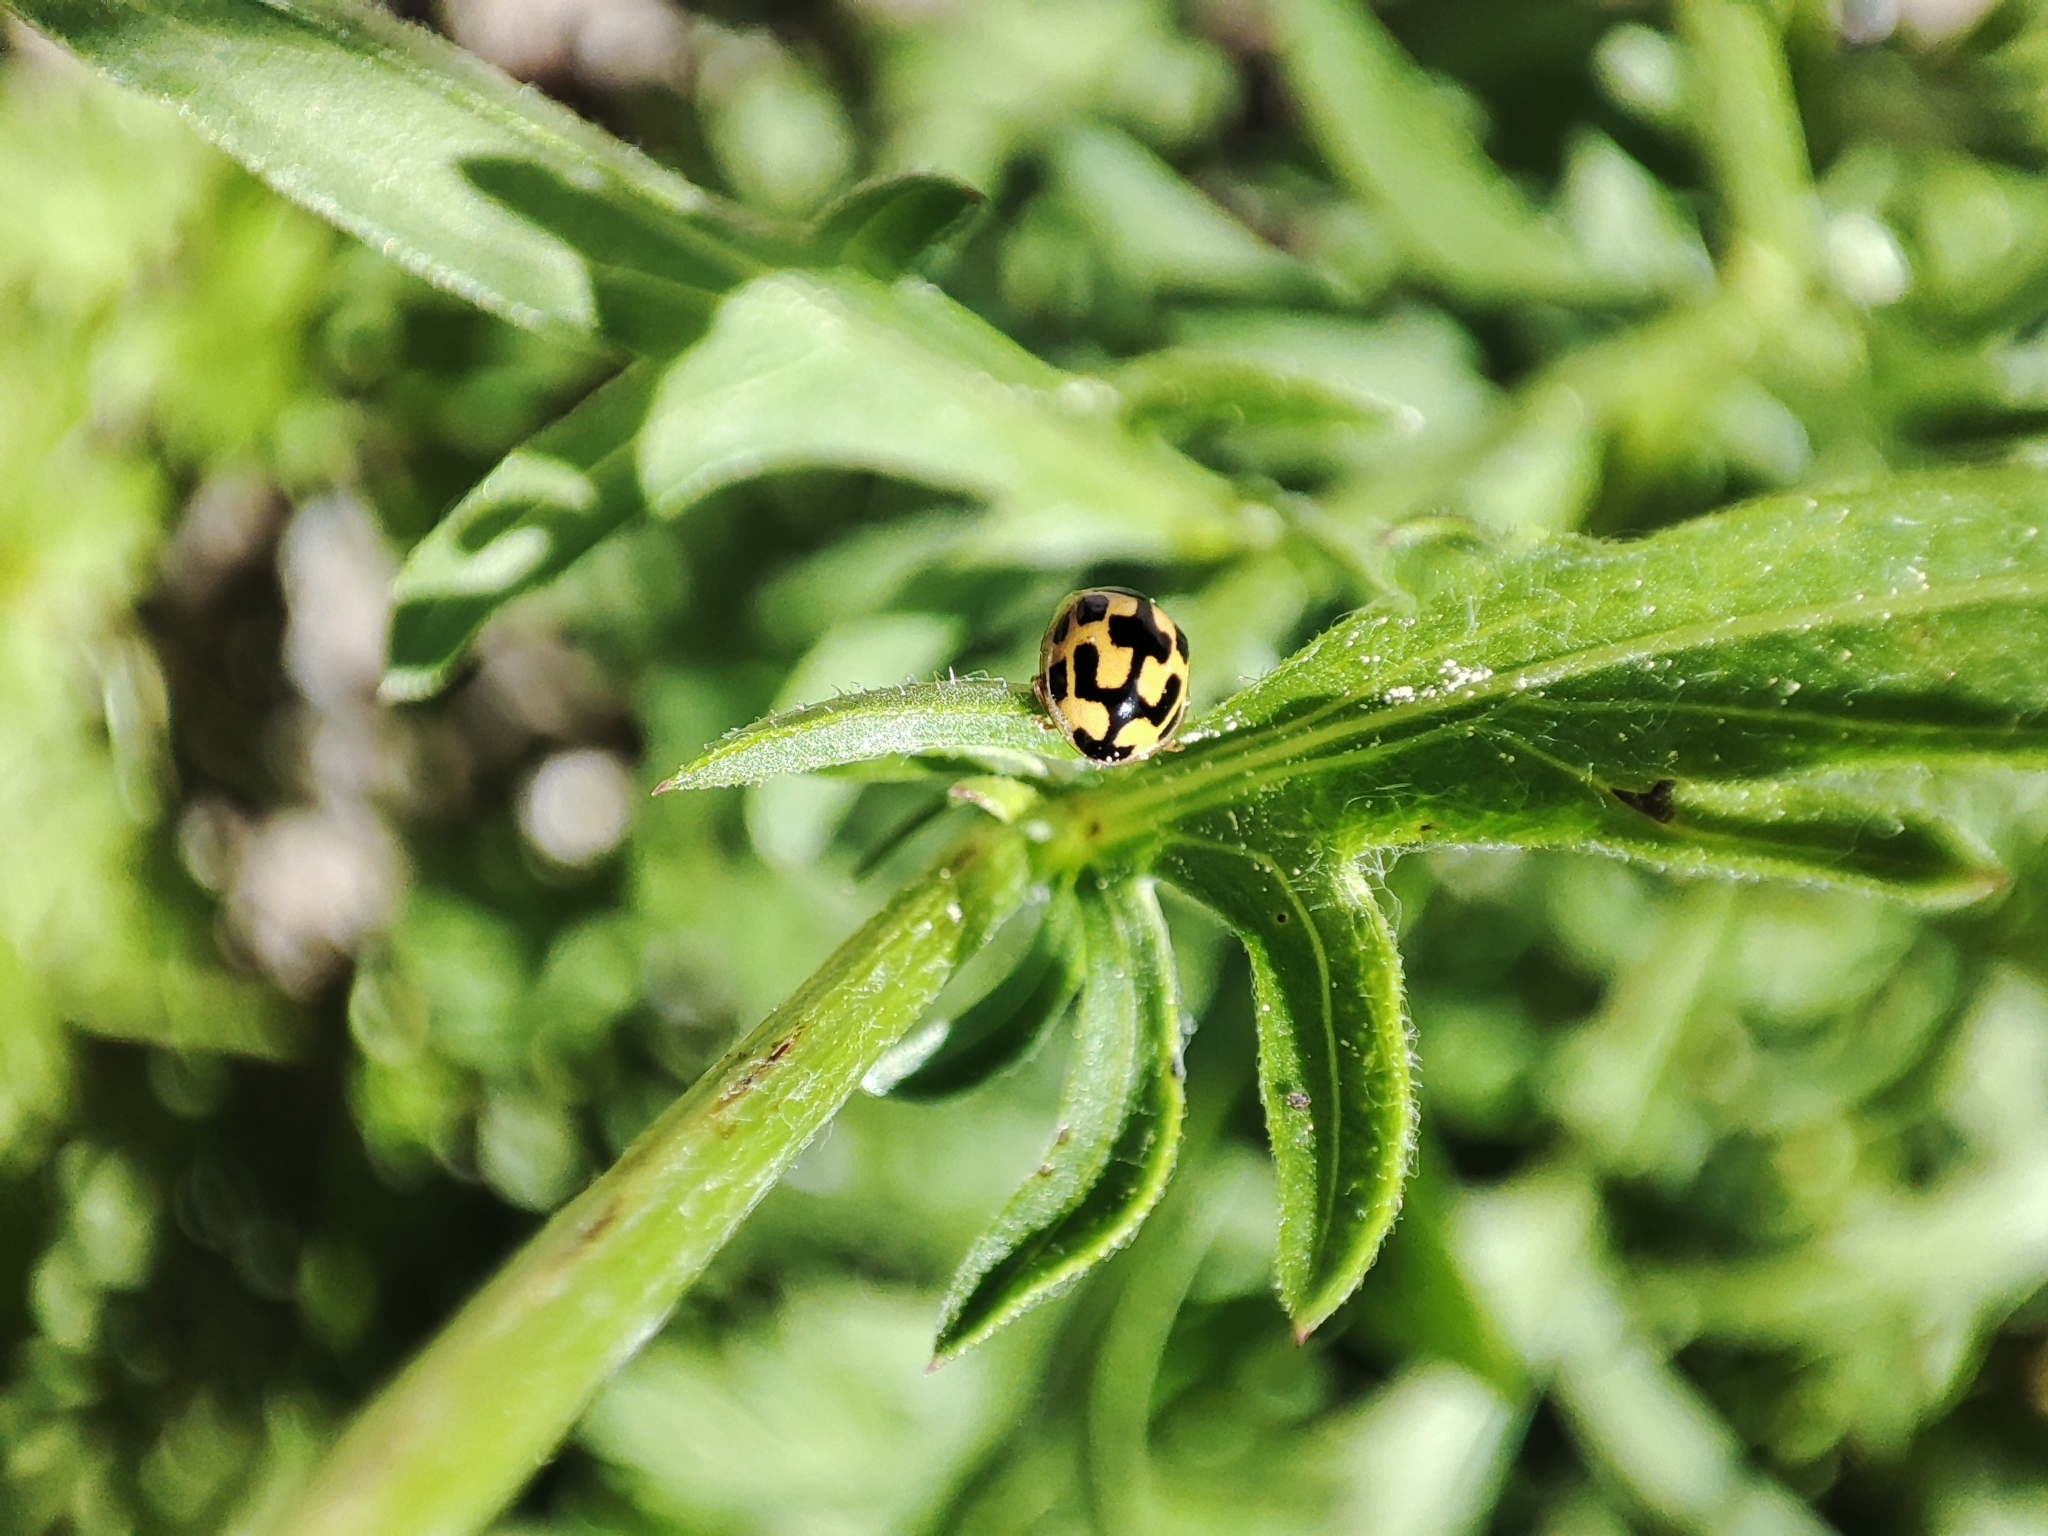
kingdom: Animalia
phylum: Arthropoda
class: Insecta
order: Coleoptera
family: Coccinellidae
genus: Propylaea
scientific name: Propylaea quatuordecimpunctata
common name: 14-spotted ladybird beetle
